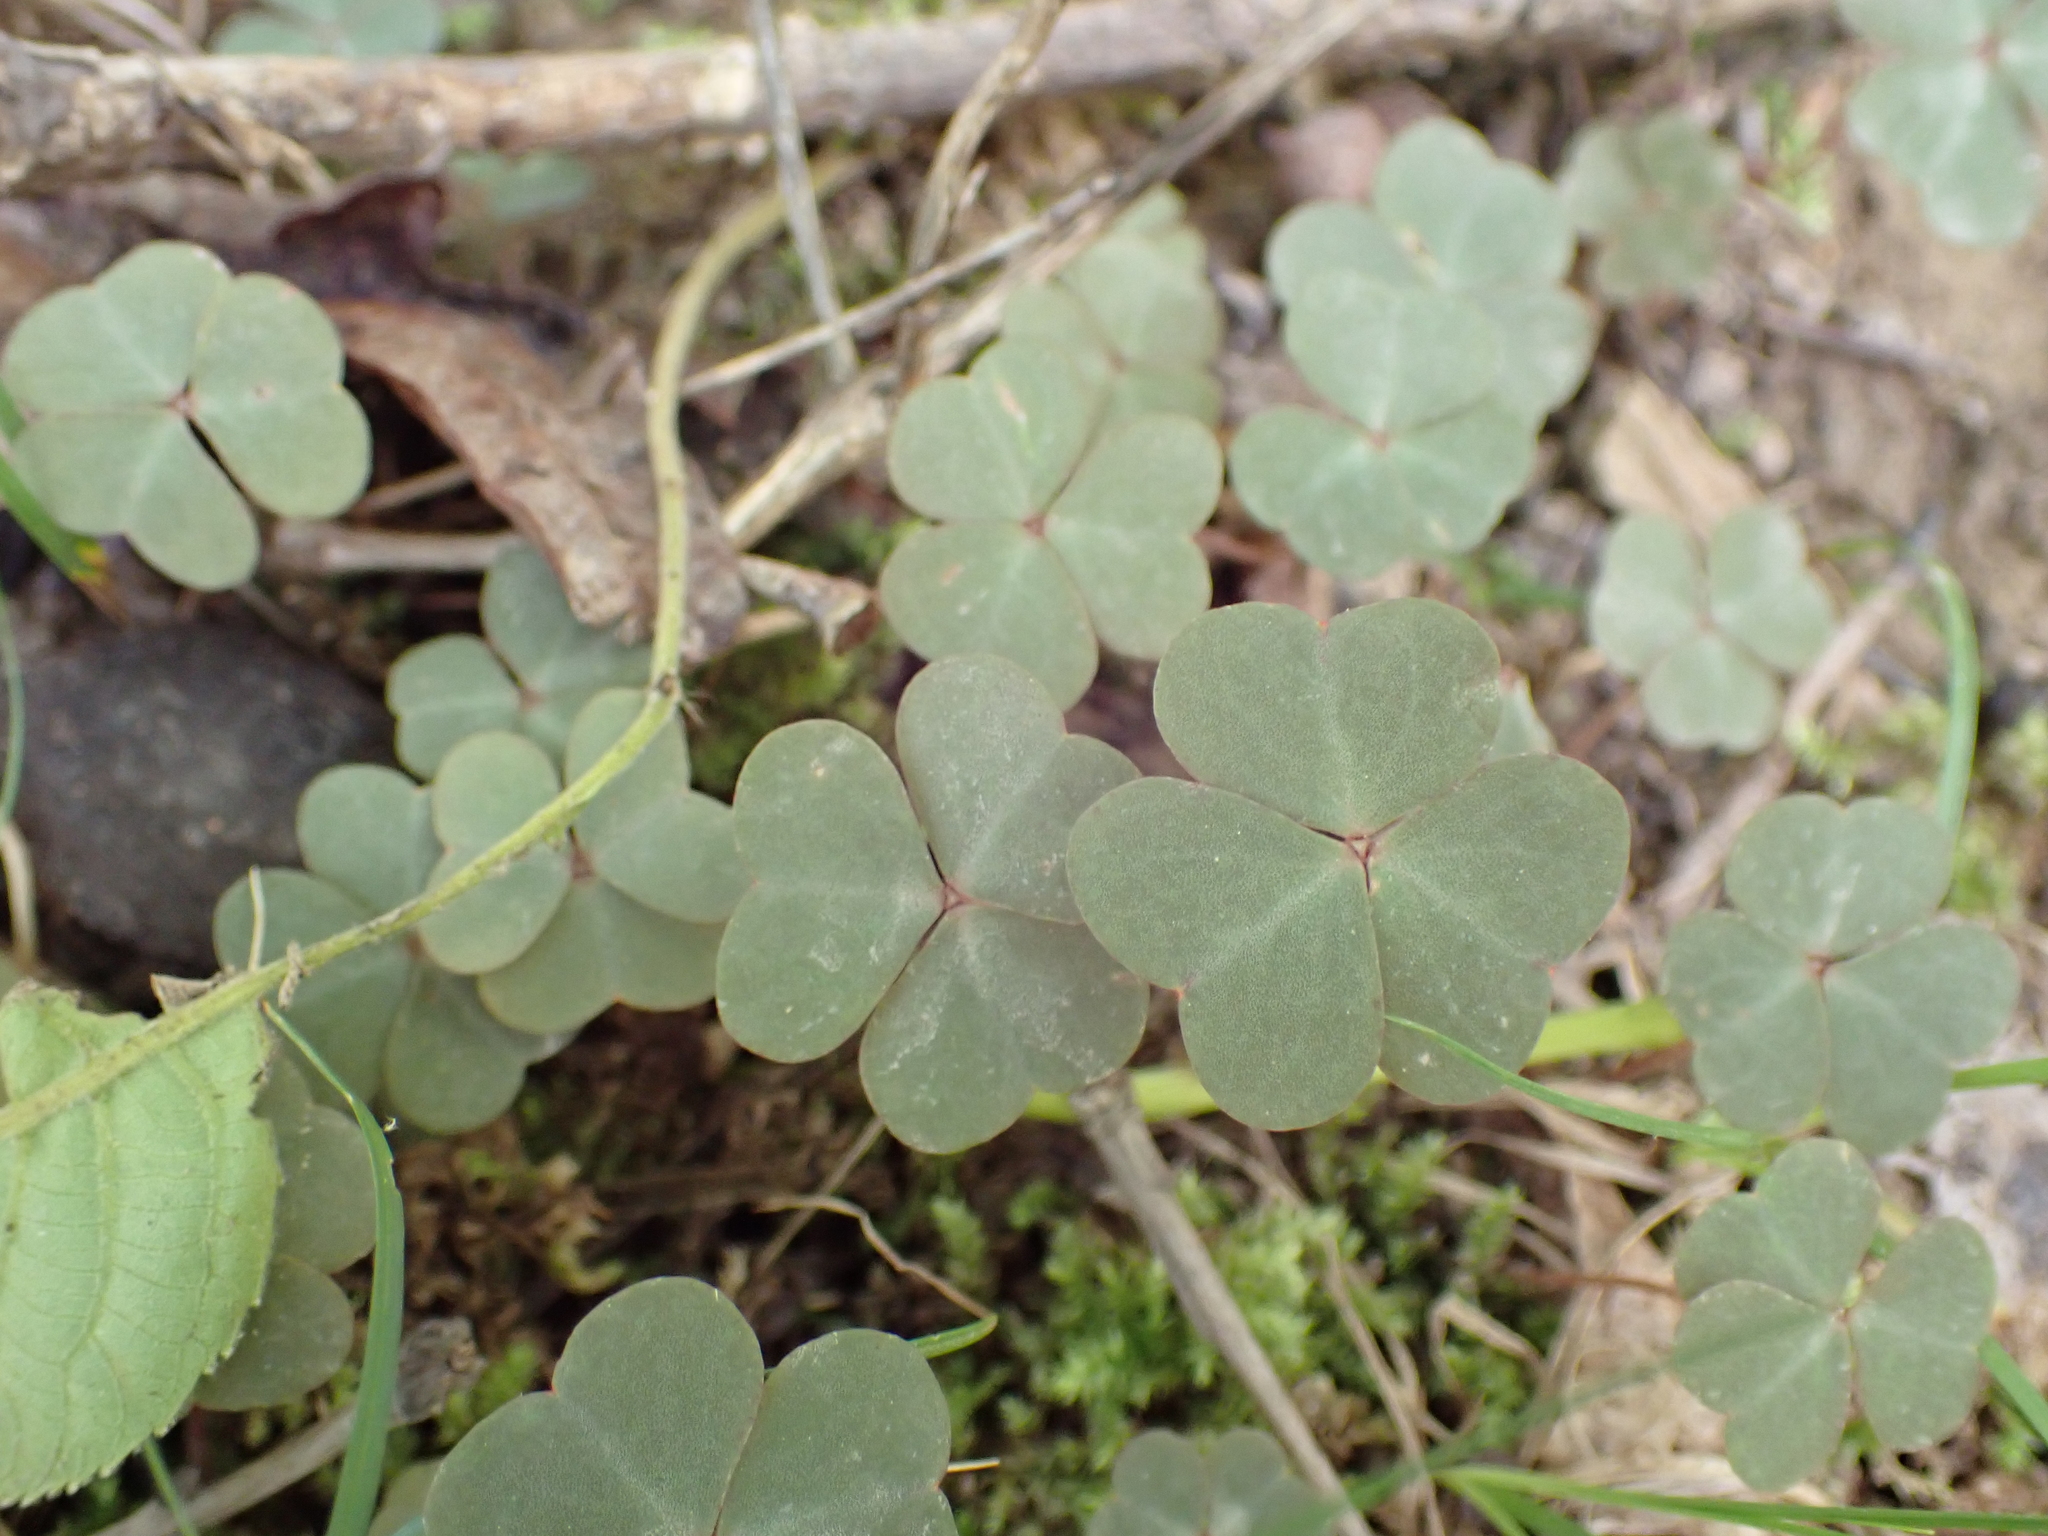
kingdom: Plantae
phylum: Tracheophyta
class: Magnoliopsida
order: Oxalidales
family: Oxalidaceae
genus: Oxalis
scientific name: Oxalis violacea
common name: Violet wood-sorrel
